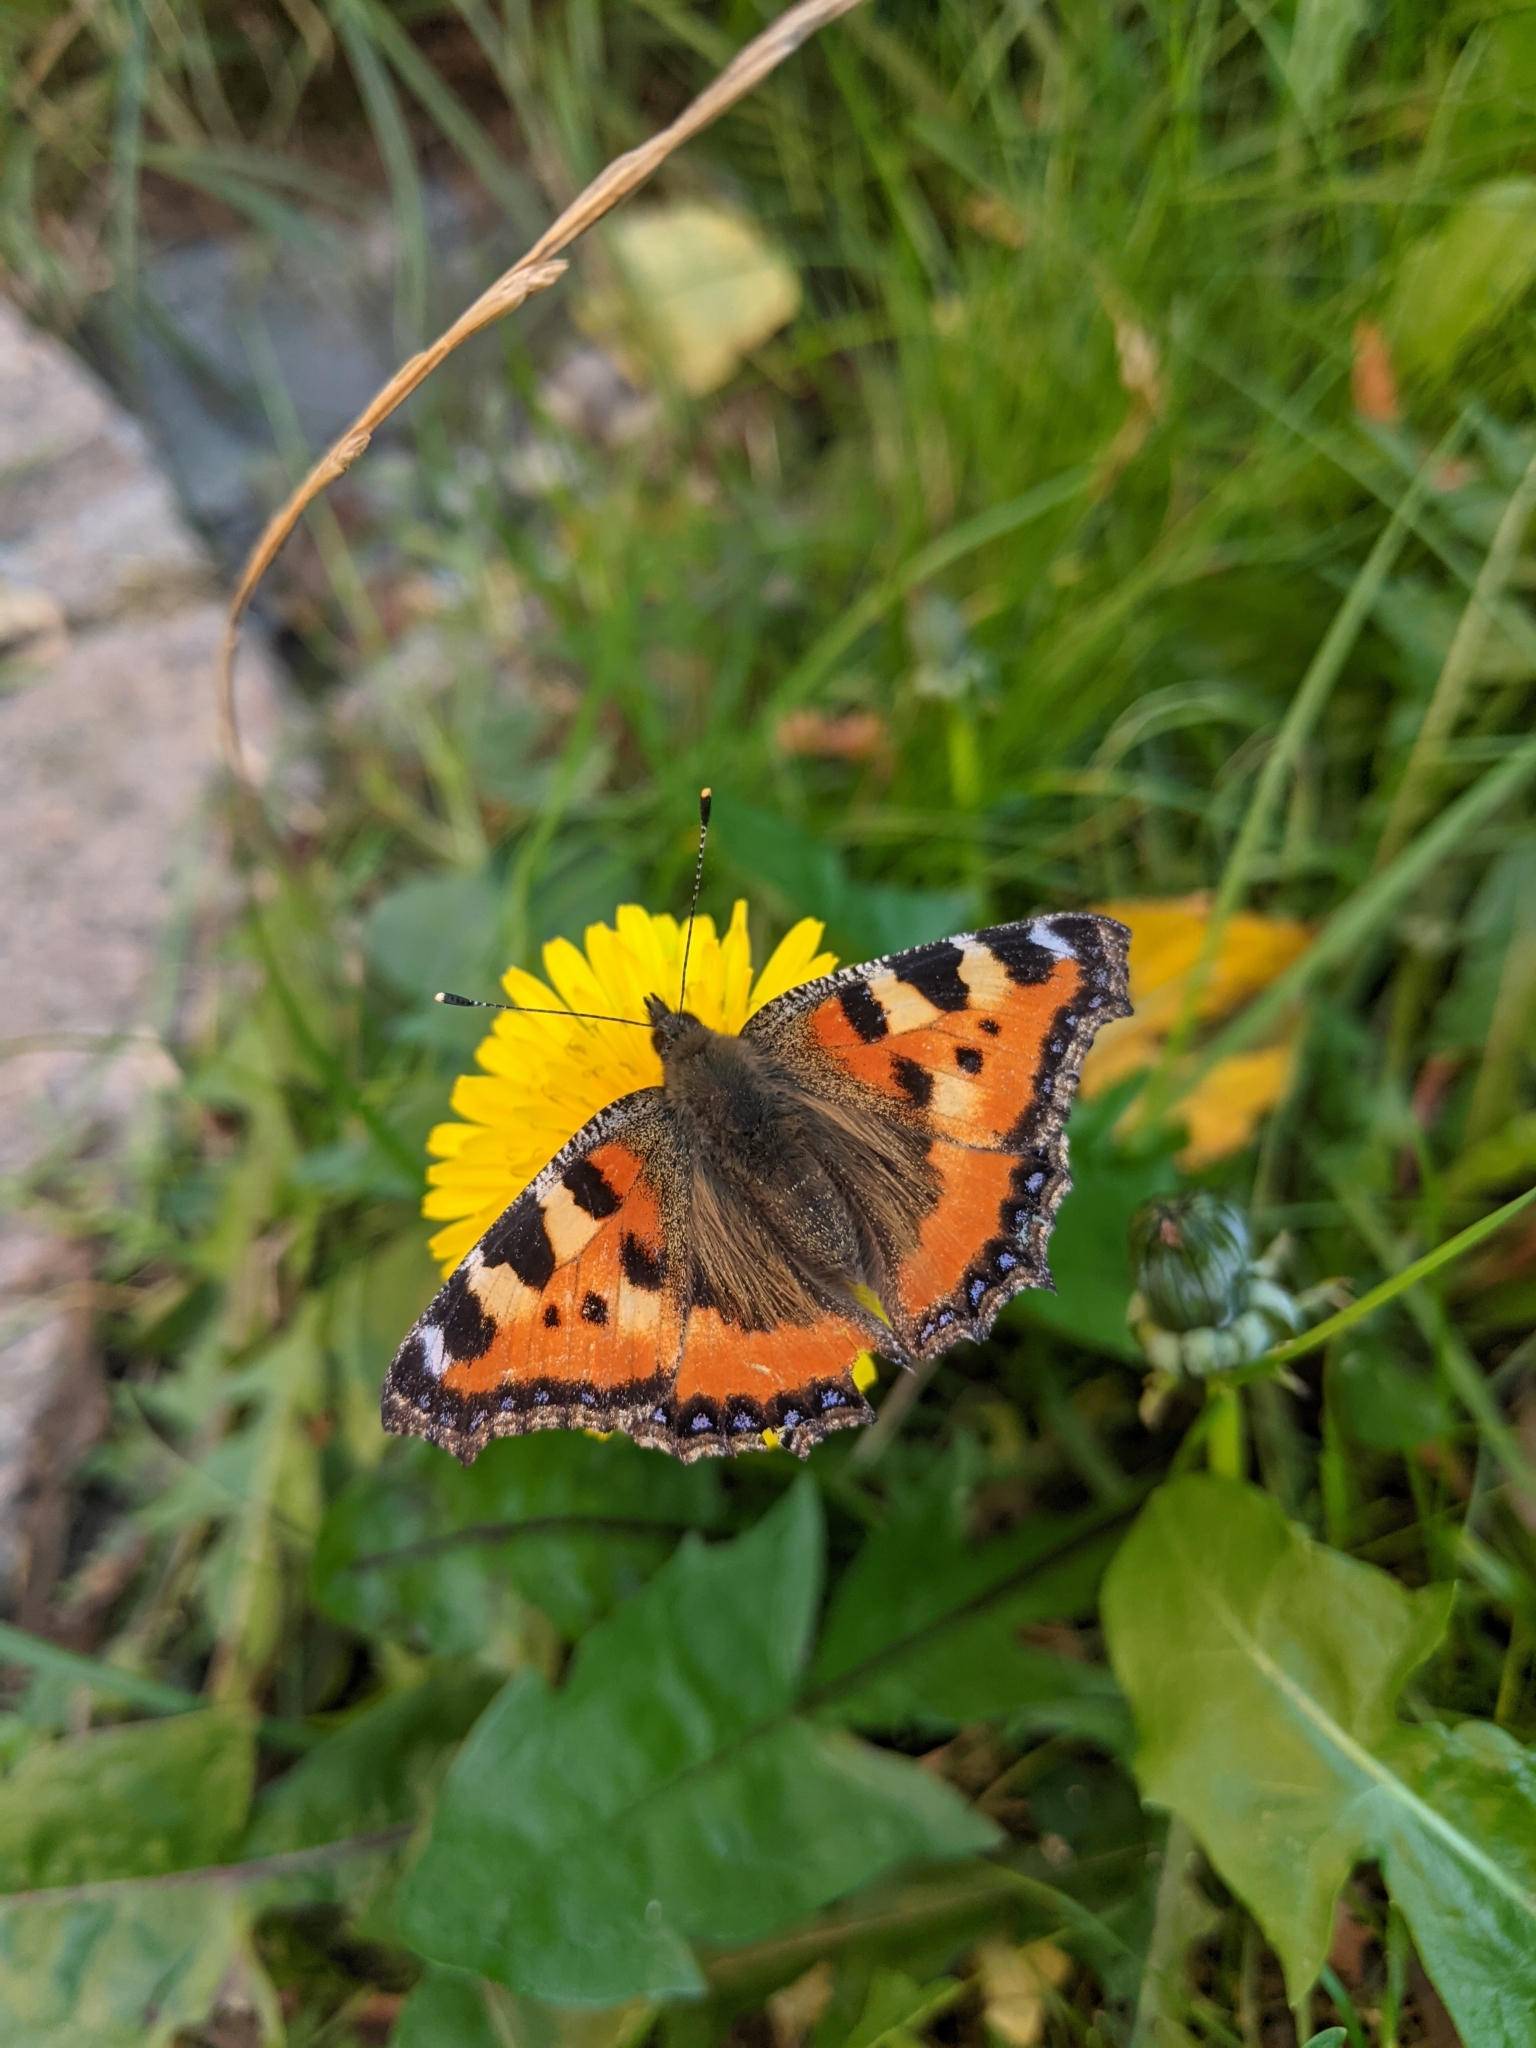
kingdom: Animalia
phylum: Arthropoda
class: Insecta
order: Lepidoptera
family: Nymphalidae
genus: Aglais
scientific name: Aglais urticae
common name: Small tortoiseshell
